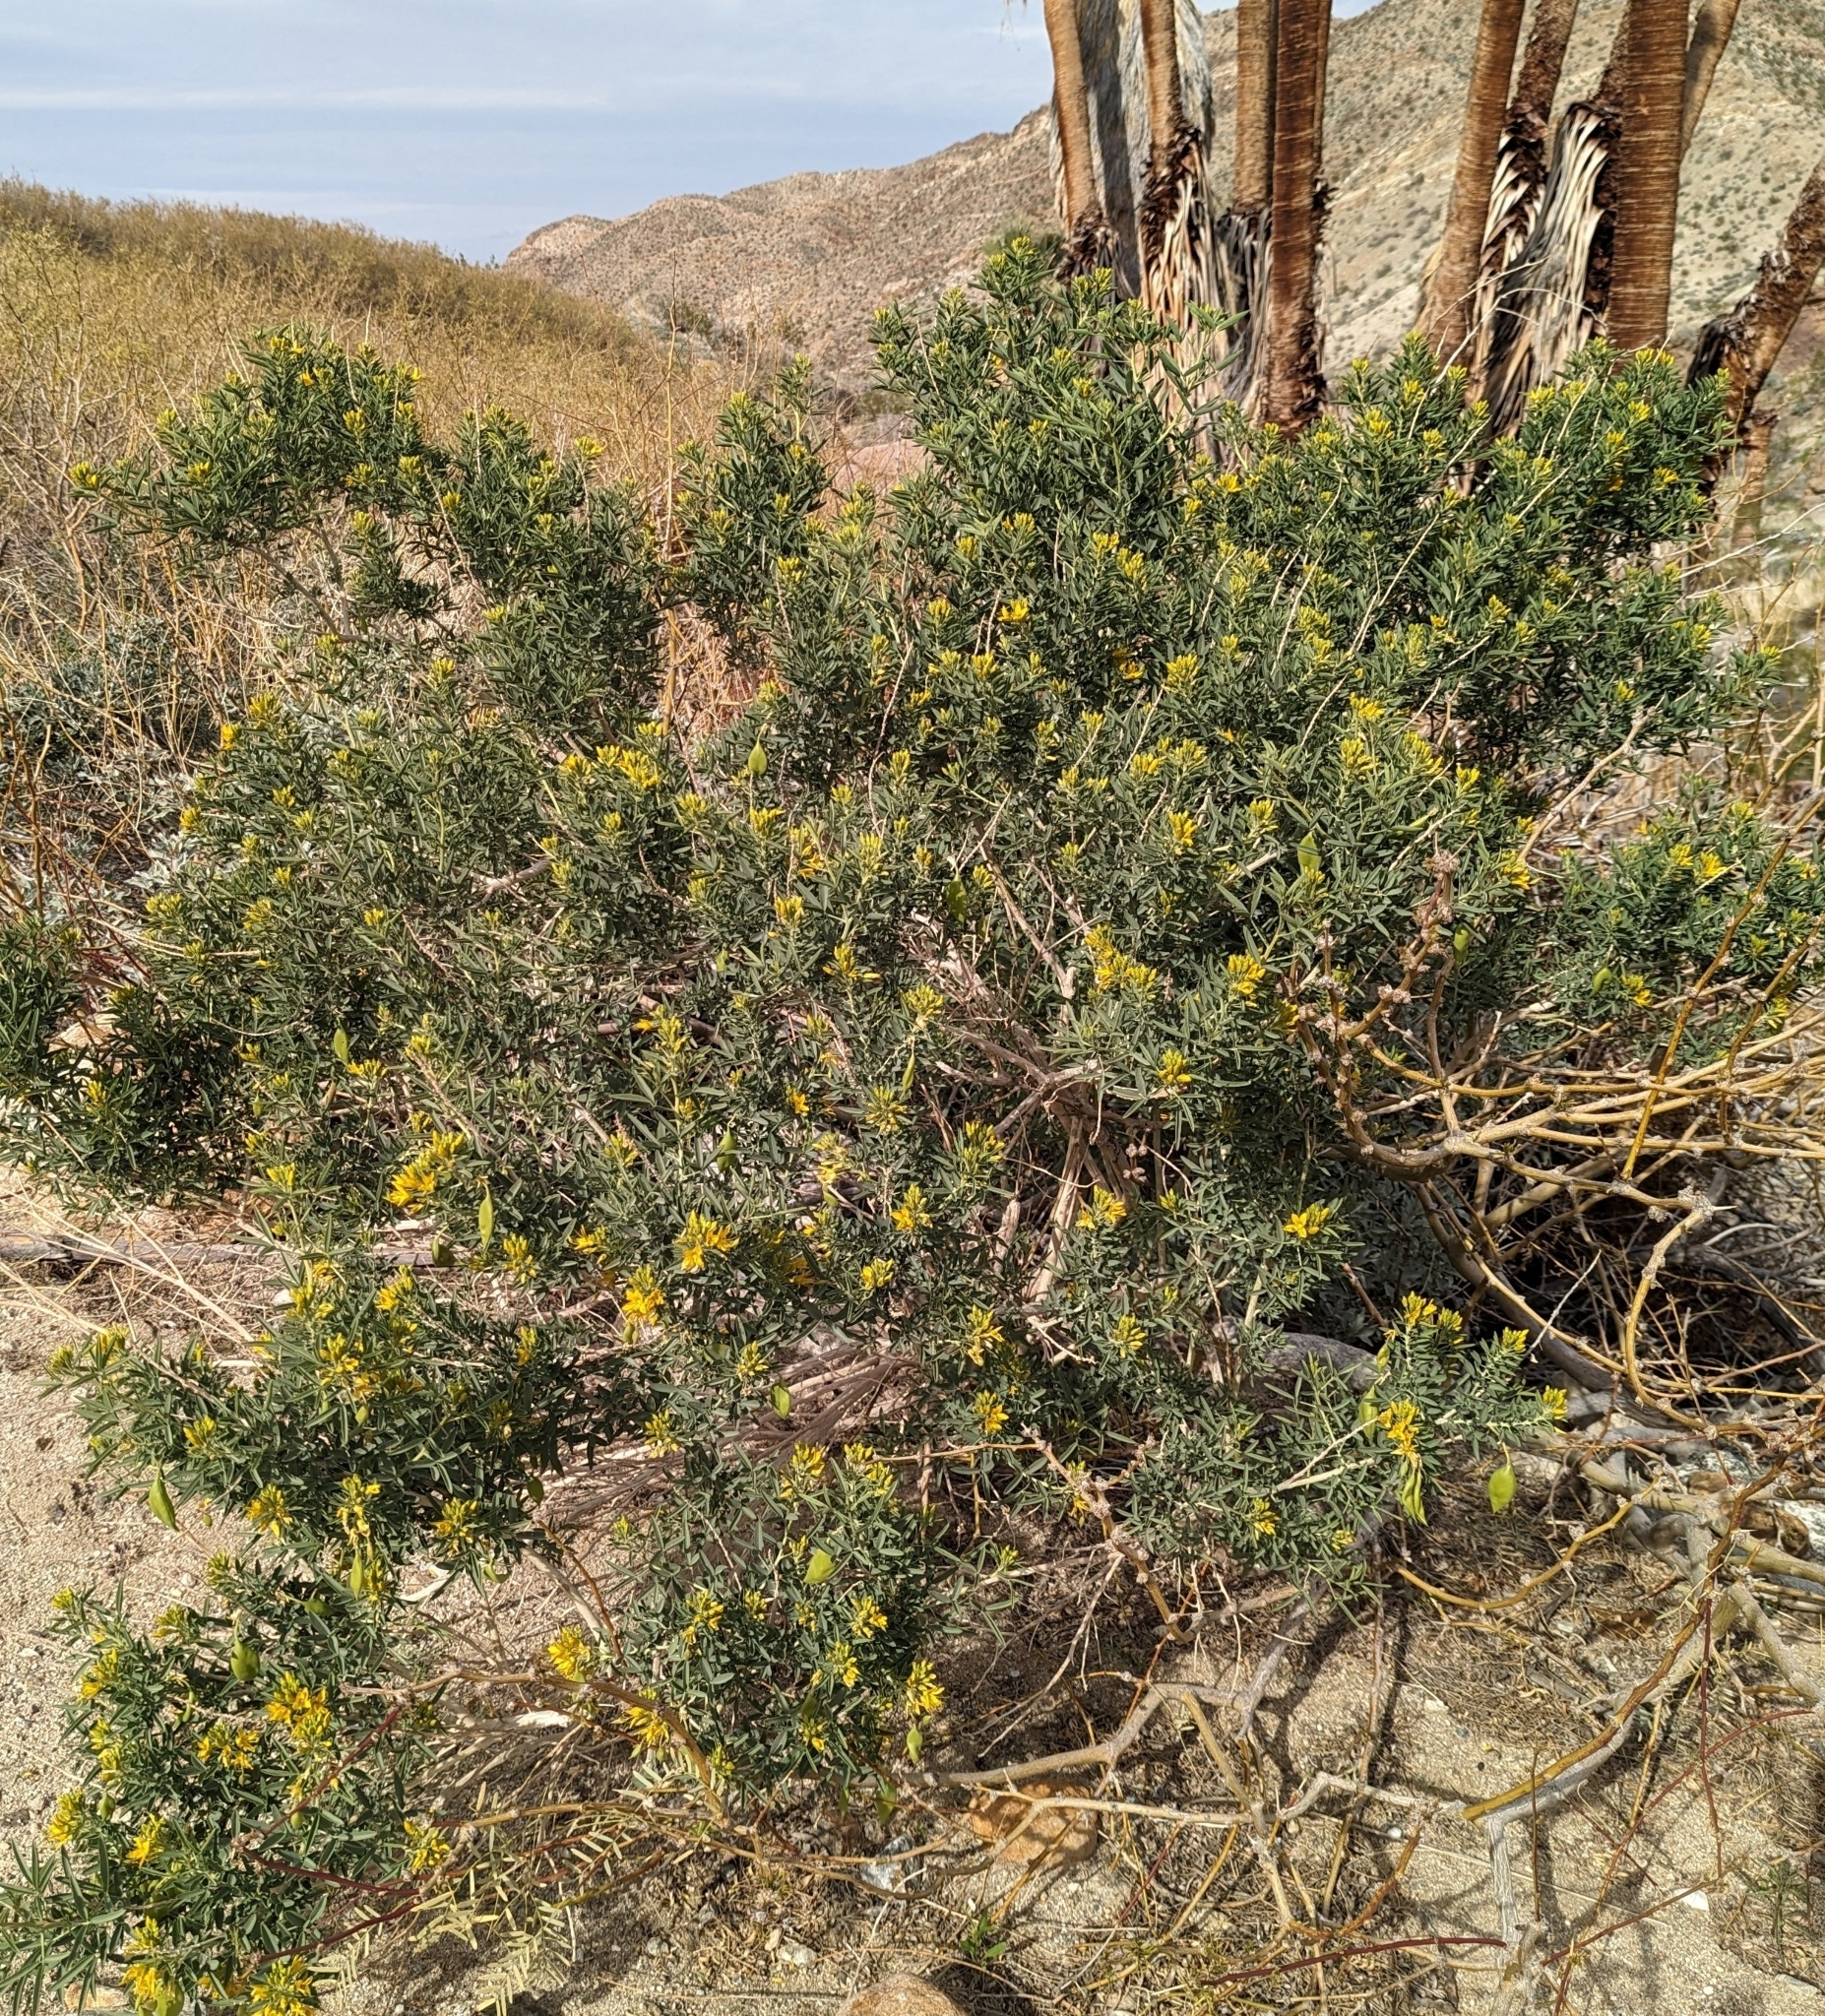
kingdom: Plantae
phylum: Tracheophyta
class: Magnoliopsida
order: Brassicales
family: Cleomaceae
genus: Cleomella
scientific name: Cleomella arborea
